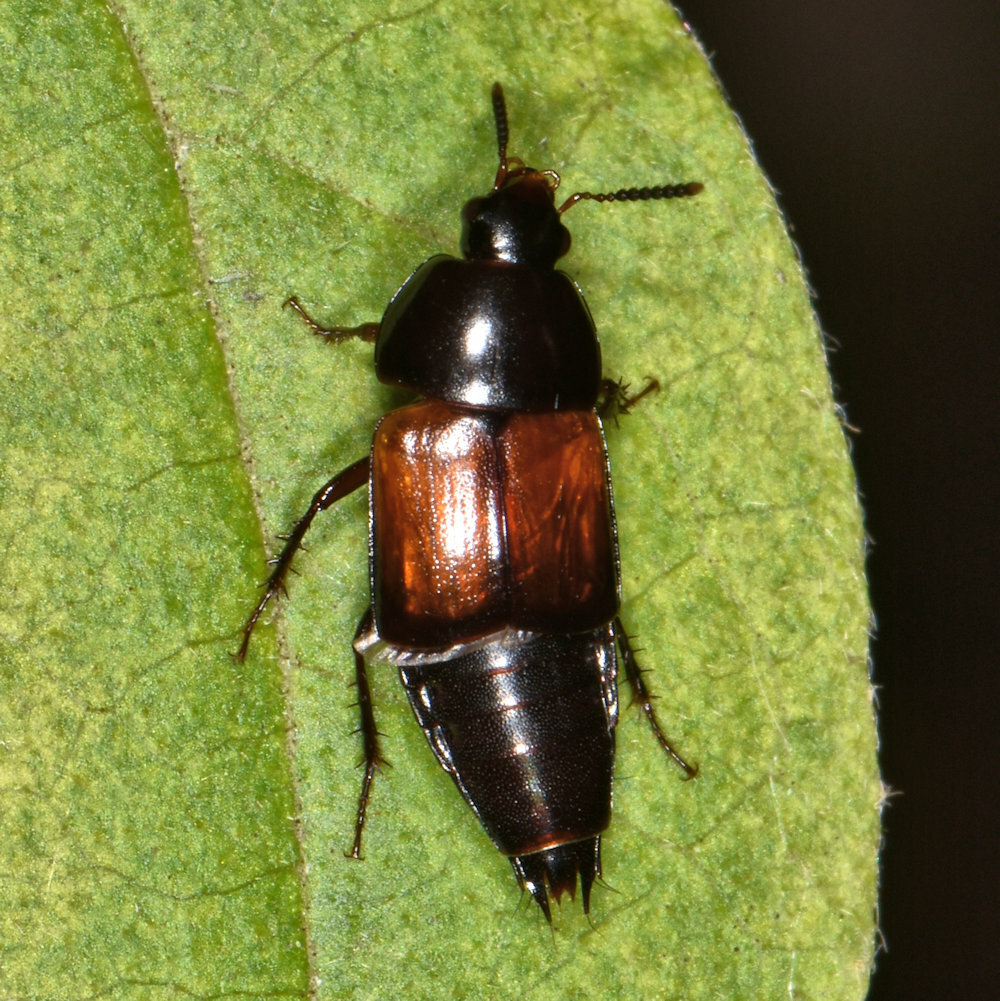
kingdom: Animalia
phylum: Arthropoda
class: Insecta
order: Coleoptera
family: Staphylinidae
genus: Tachinus
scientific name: Tachinus fimbriatus
